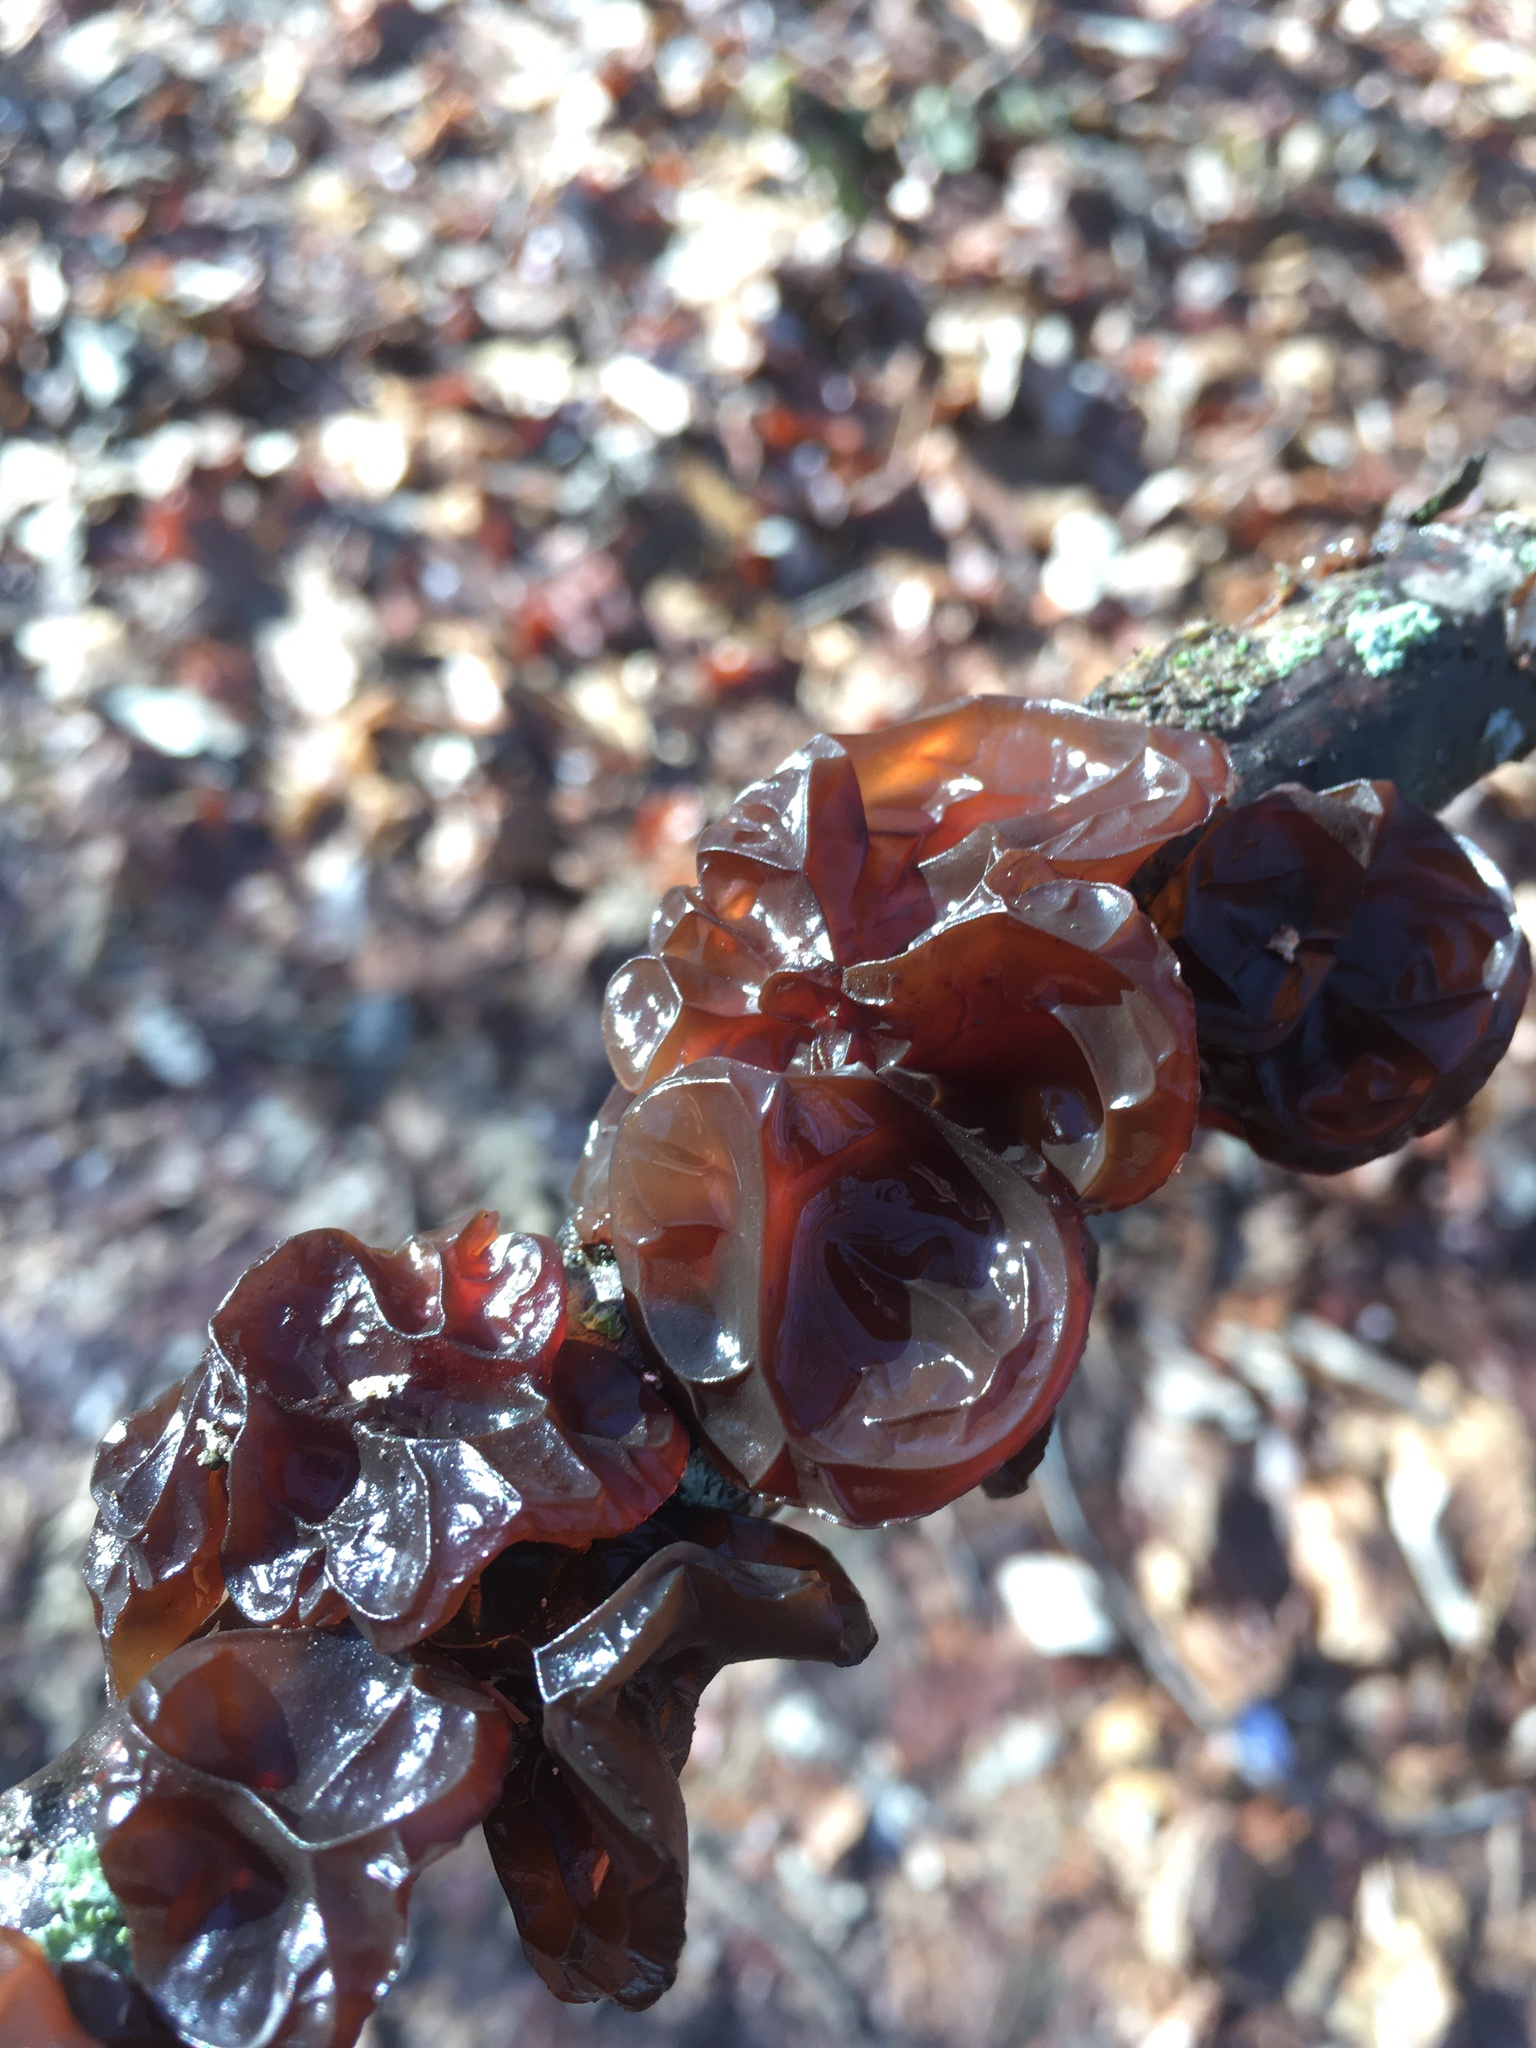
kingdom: Fungi
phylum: Basidiomycota
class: Agaricomycetes
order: Auriculariales
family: Auriculariaceae
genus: Exidia
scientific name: Exidia
